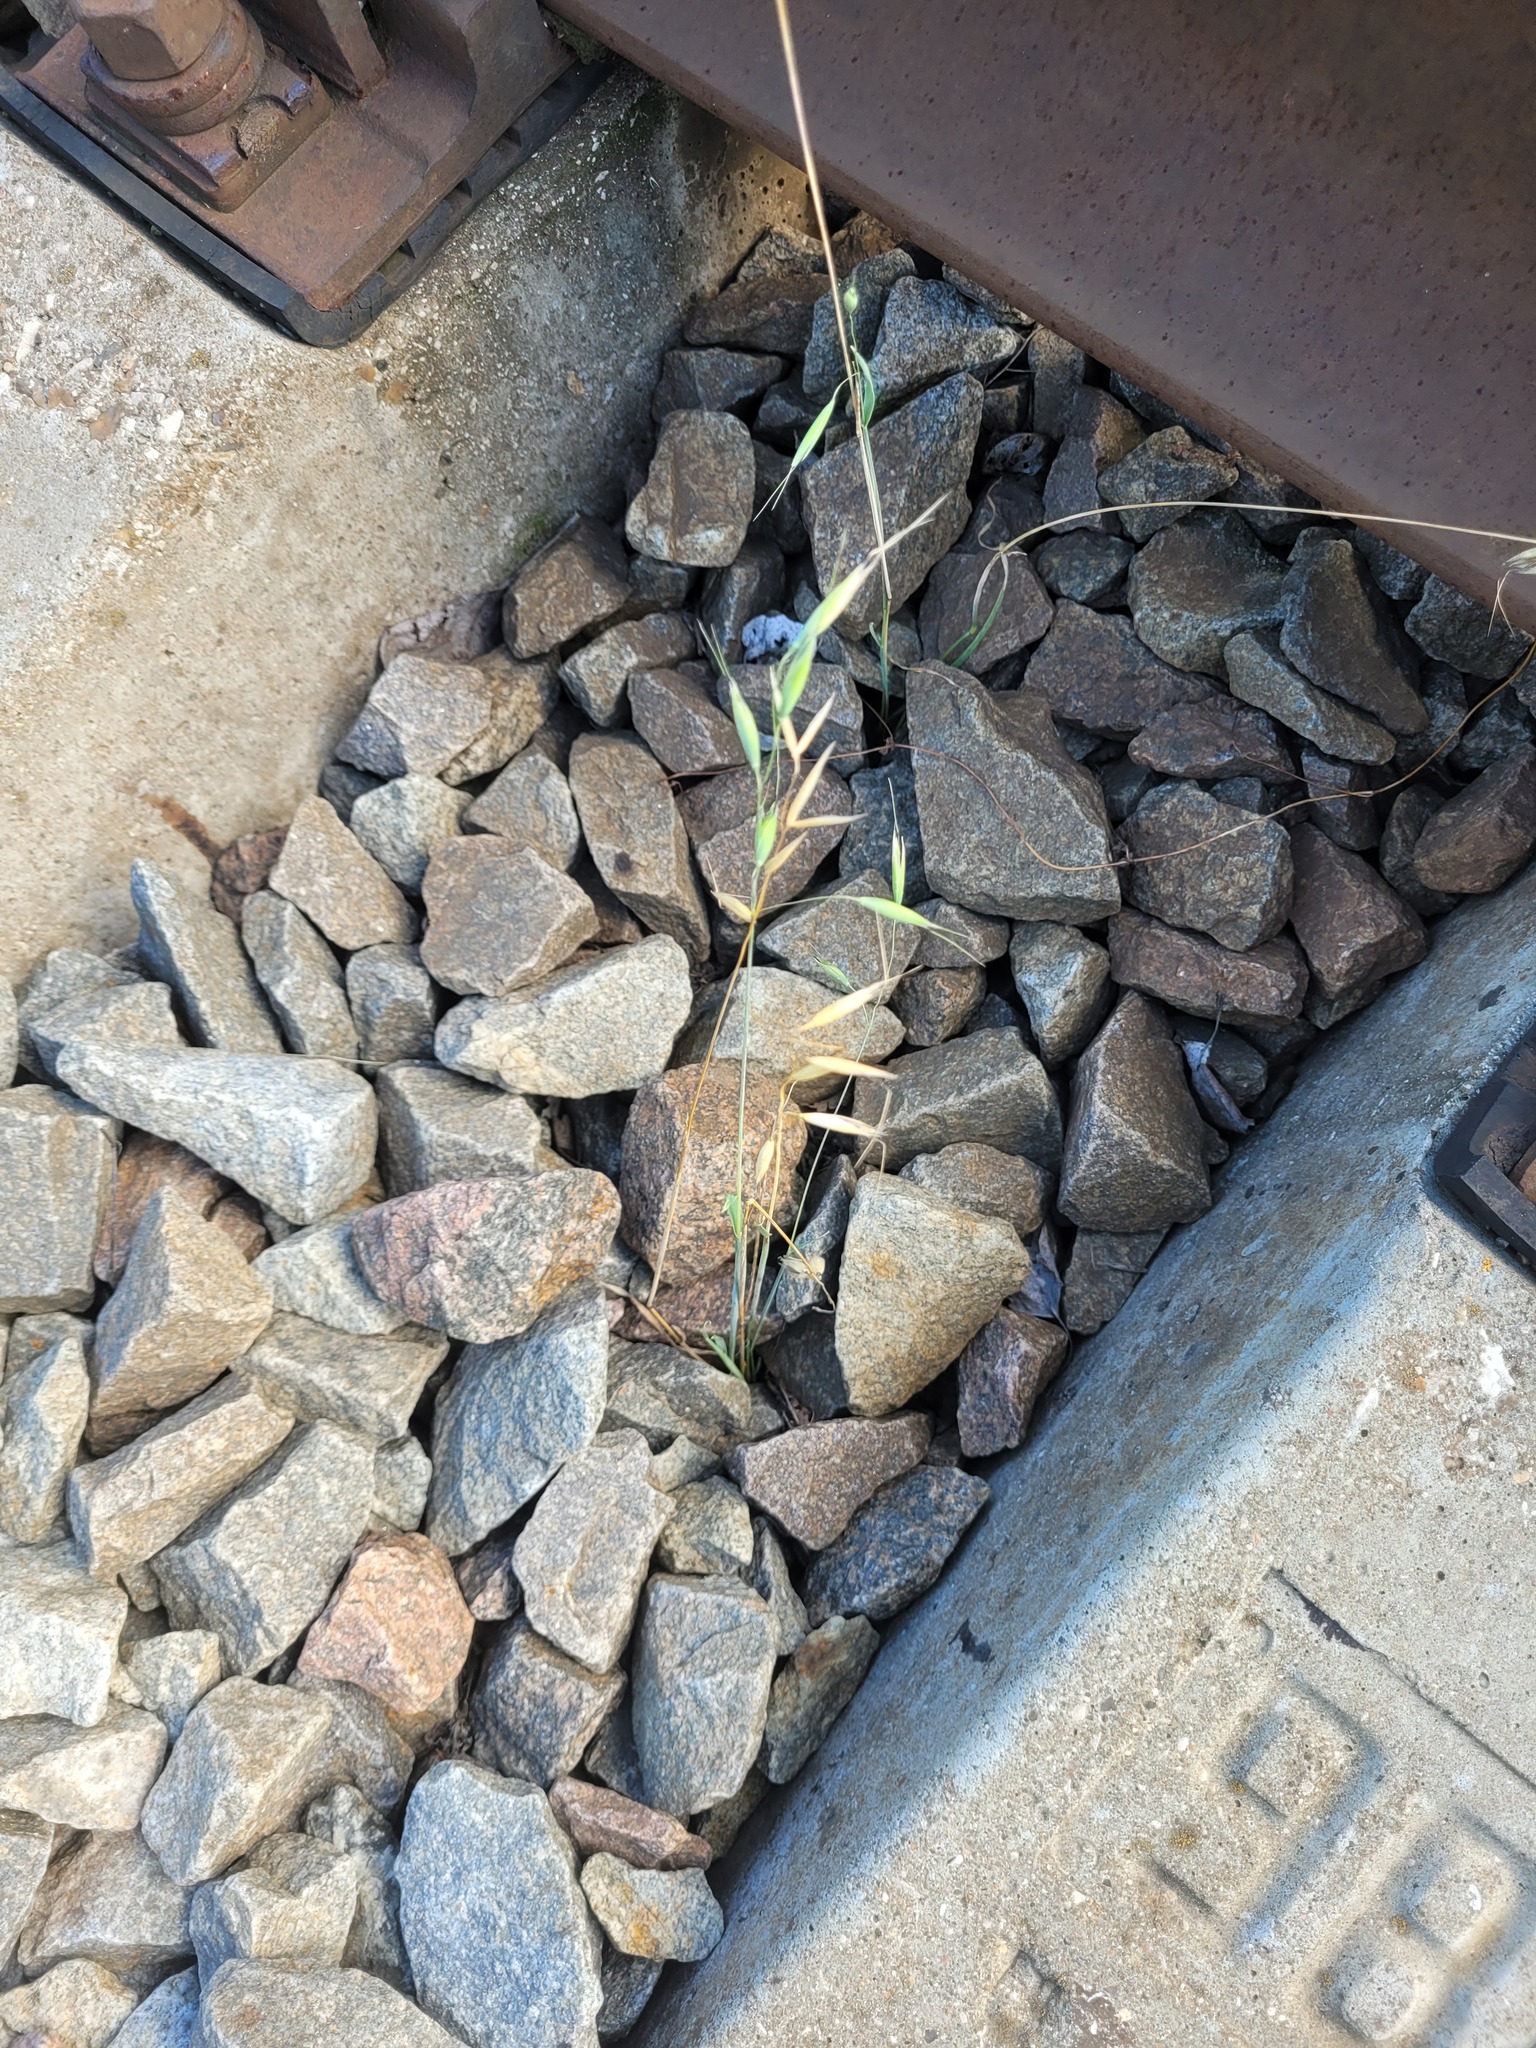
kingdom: Plantae
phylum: Tracheophyta
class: Liliopsida
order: Poales
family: Poaceae
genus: Avena
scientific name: Avena fatua
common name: Wild oat
